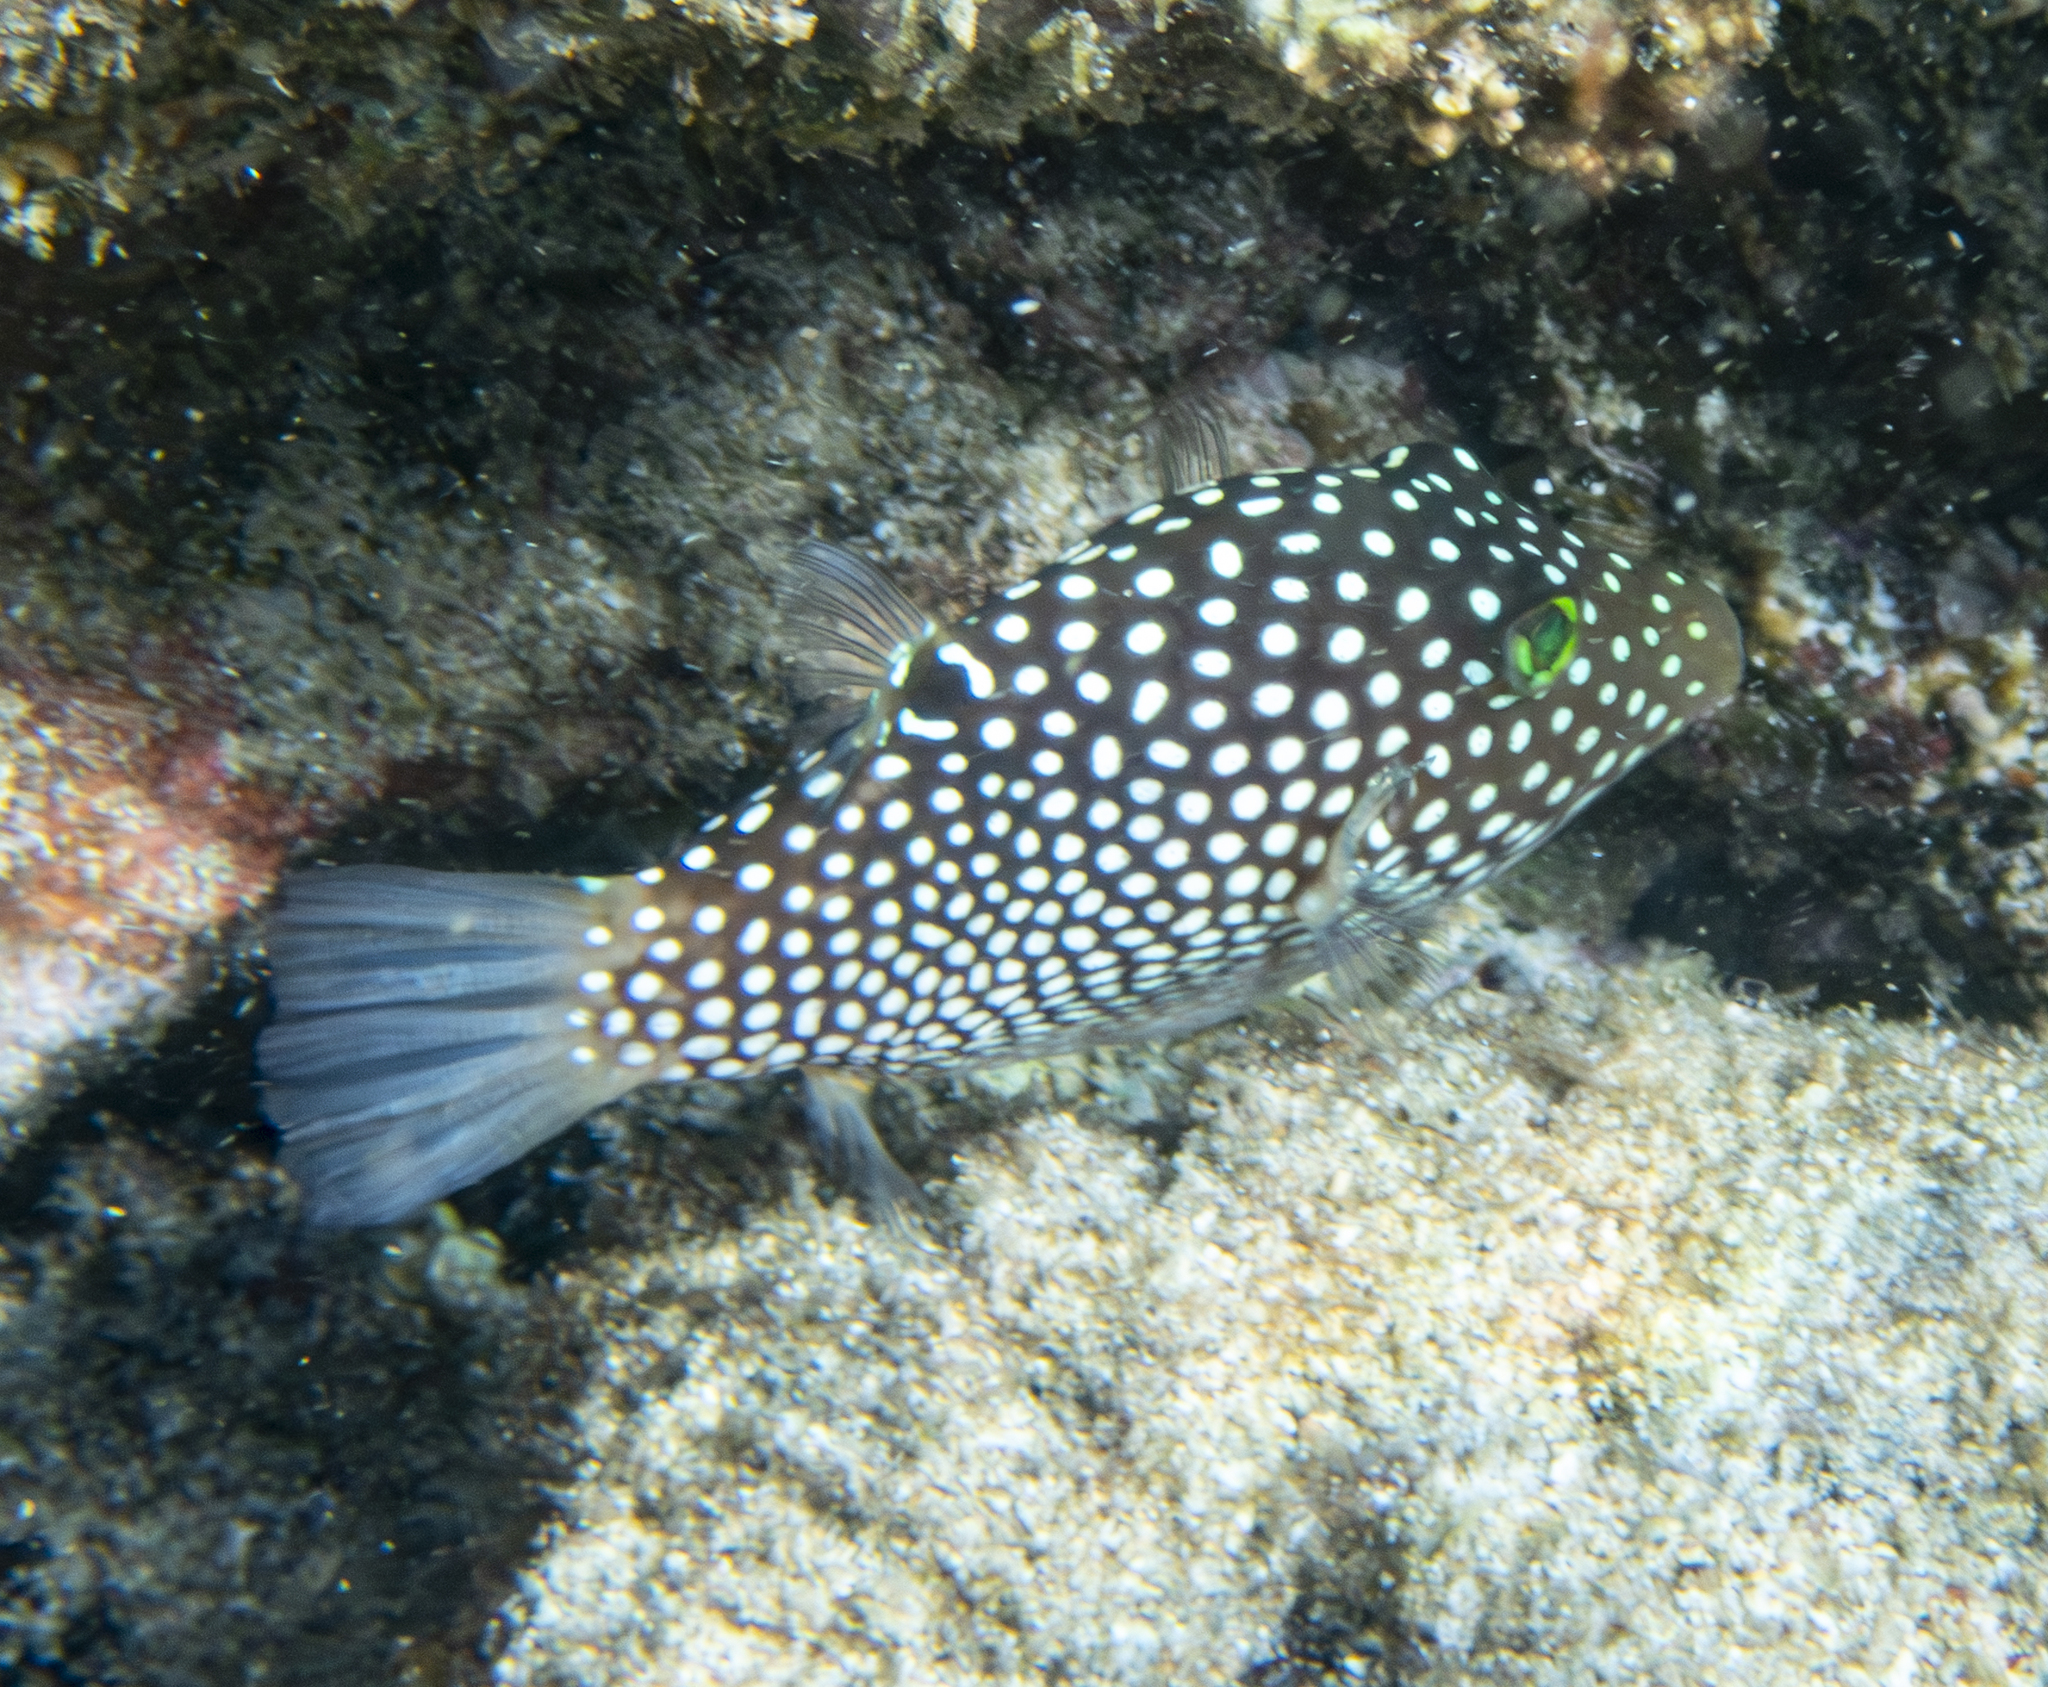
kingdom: Animalia
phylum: Chordata
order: Tetraodontiformes
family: Tetraodontidae
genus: Canthigaster
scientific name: Canthigaster jactator
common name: Hawaiian whitespotted toby
